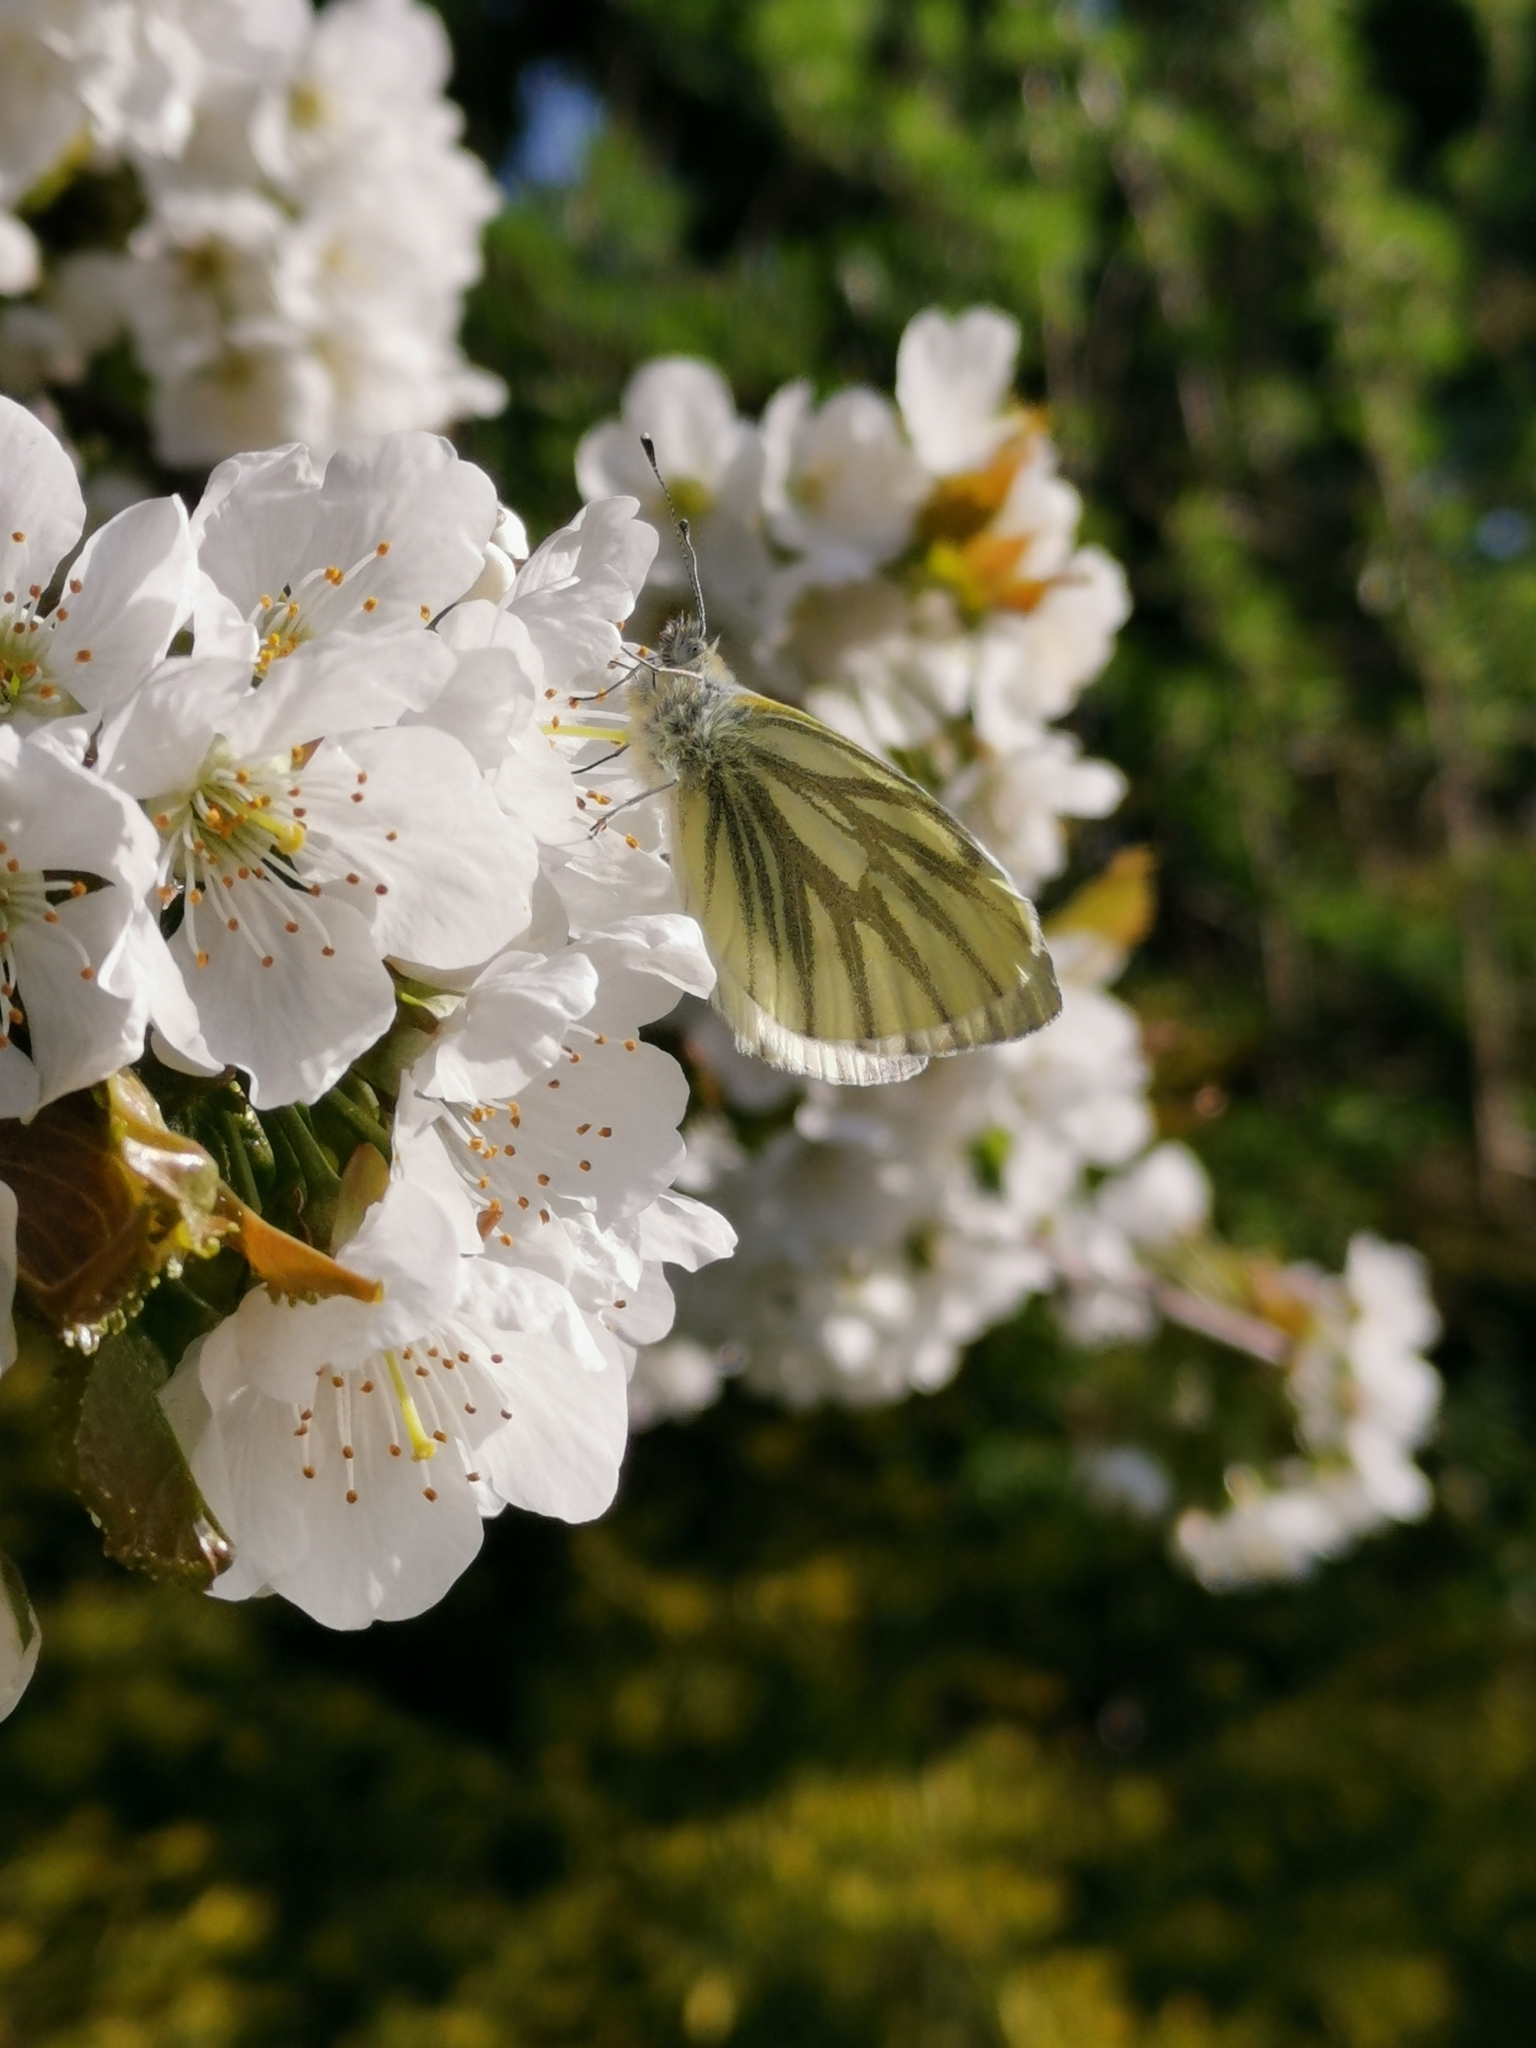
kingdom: Animalia
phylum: Arthropoda
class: Insecta
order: Lepidoptera
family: Pieridae
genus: Pieris
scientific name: Pieris napi
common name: Green-veined white
